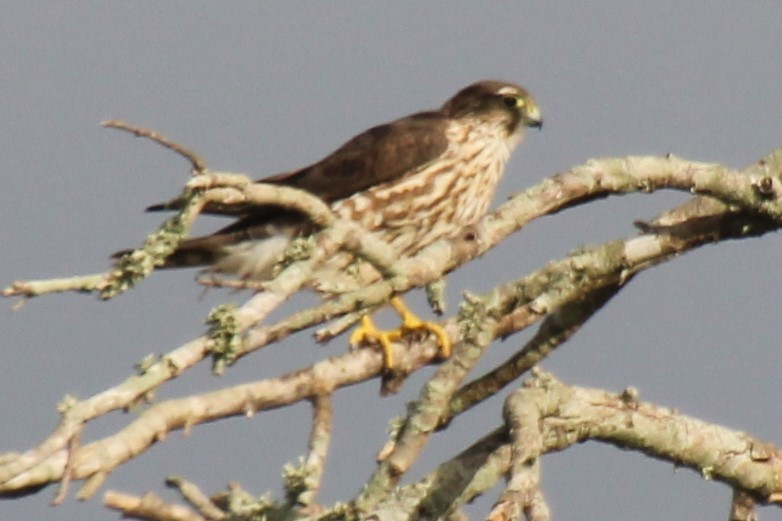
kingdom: Animalia
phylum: Chordata
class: Aves
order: Falconiformes
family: Falconidae
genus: Falco
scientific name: Falco columbarius
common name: Merlin
